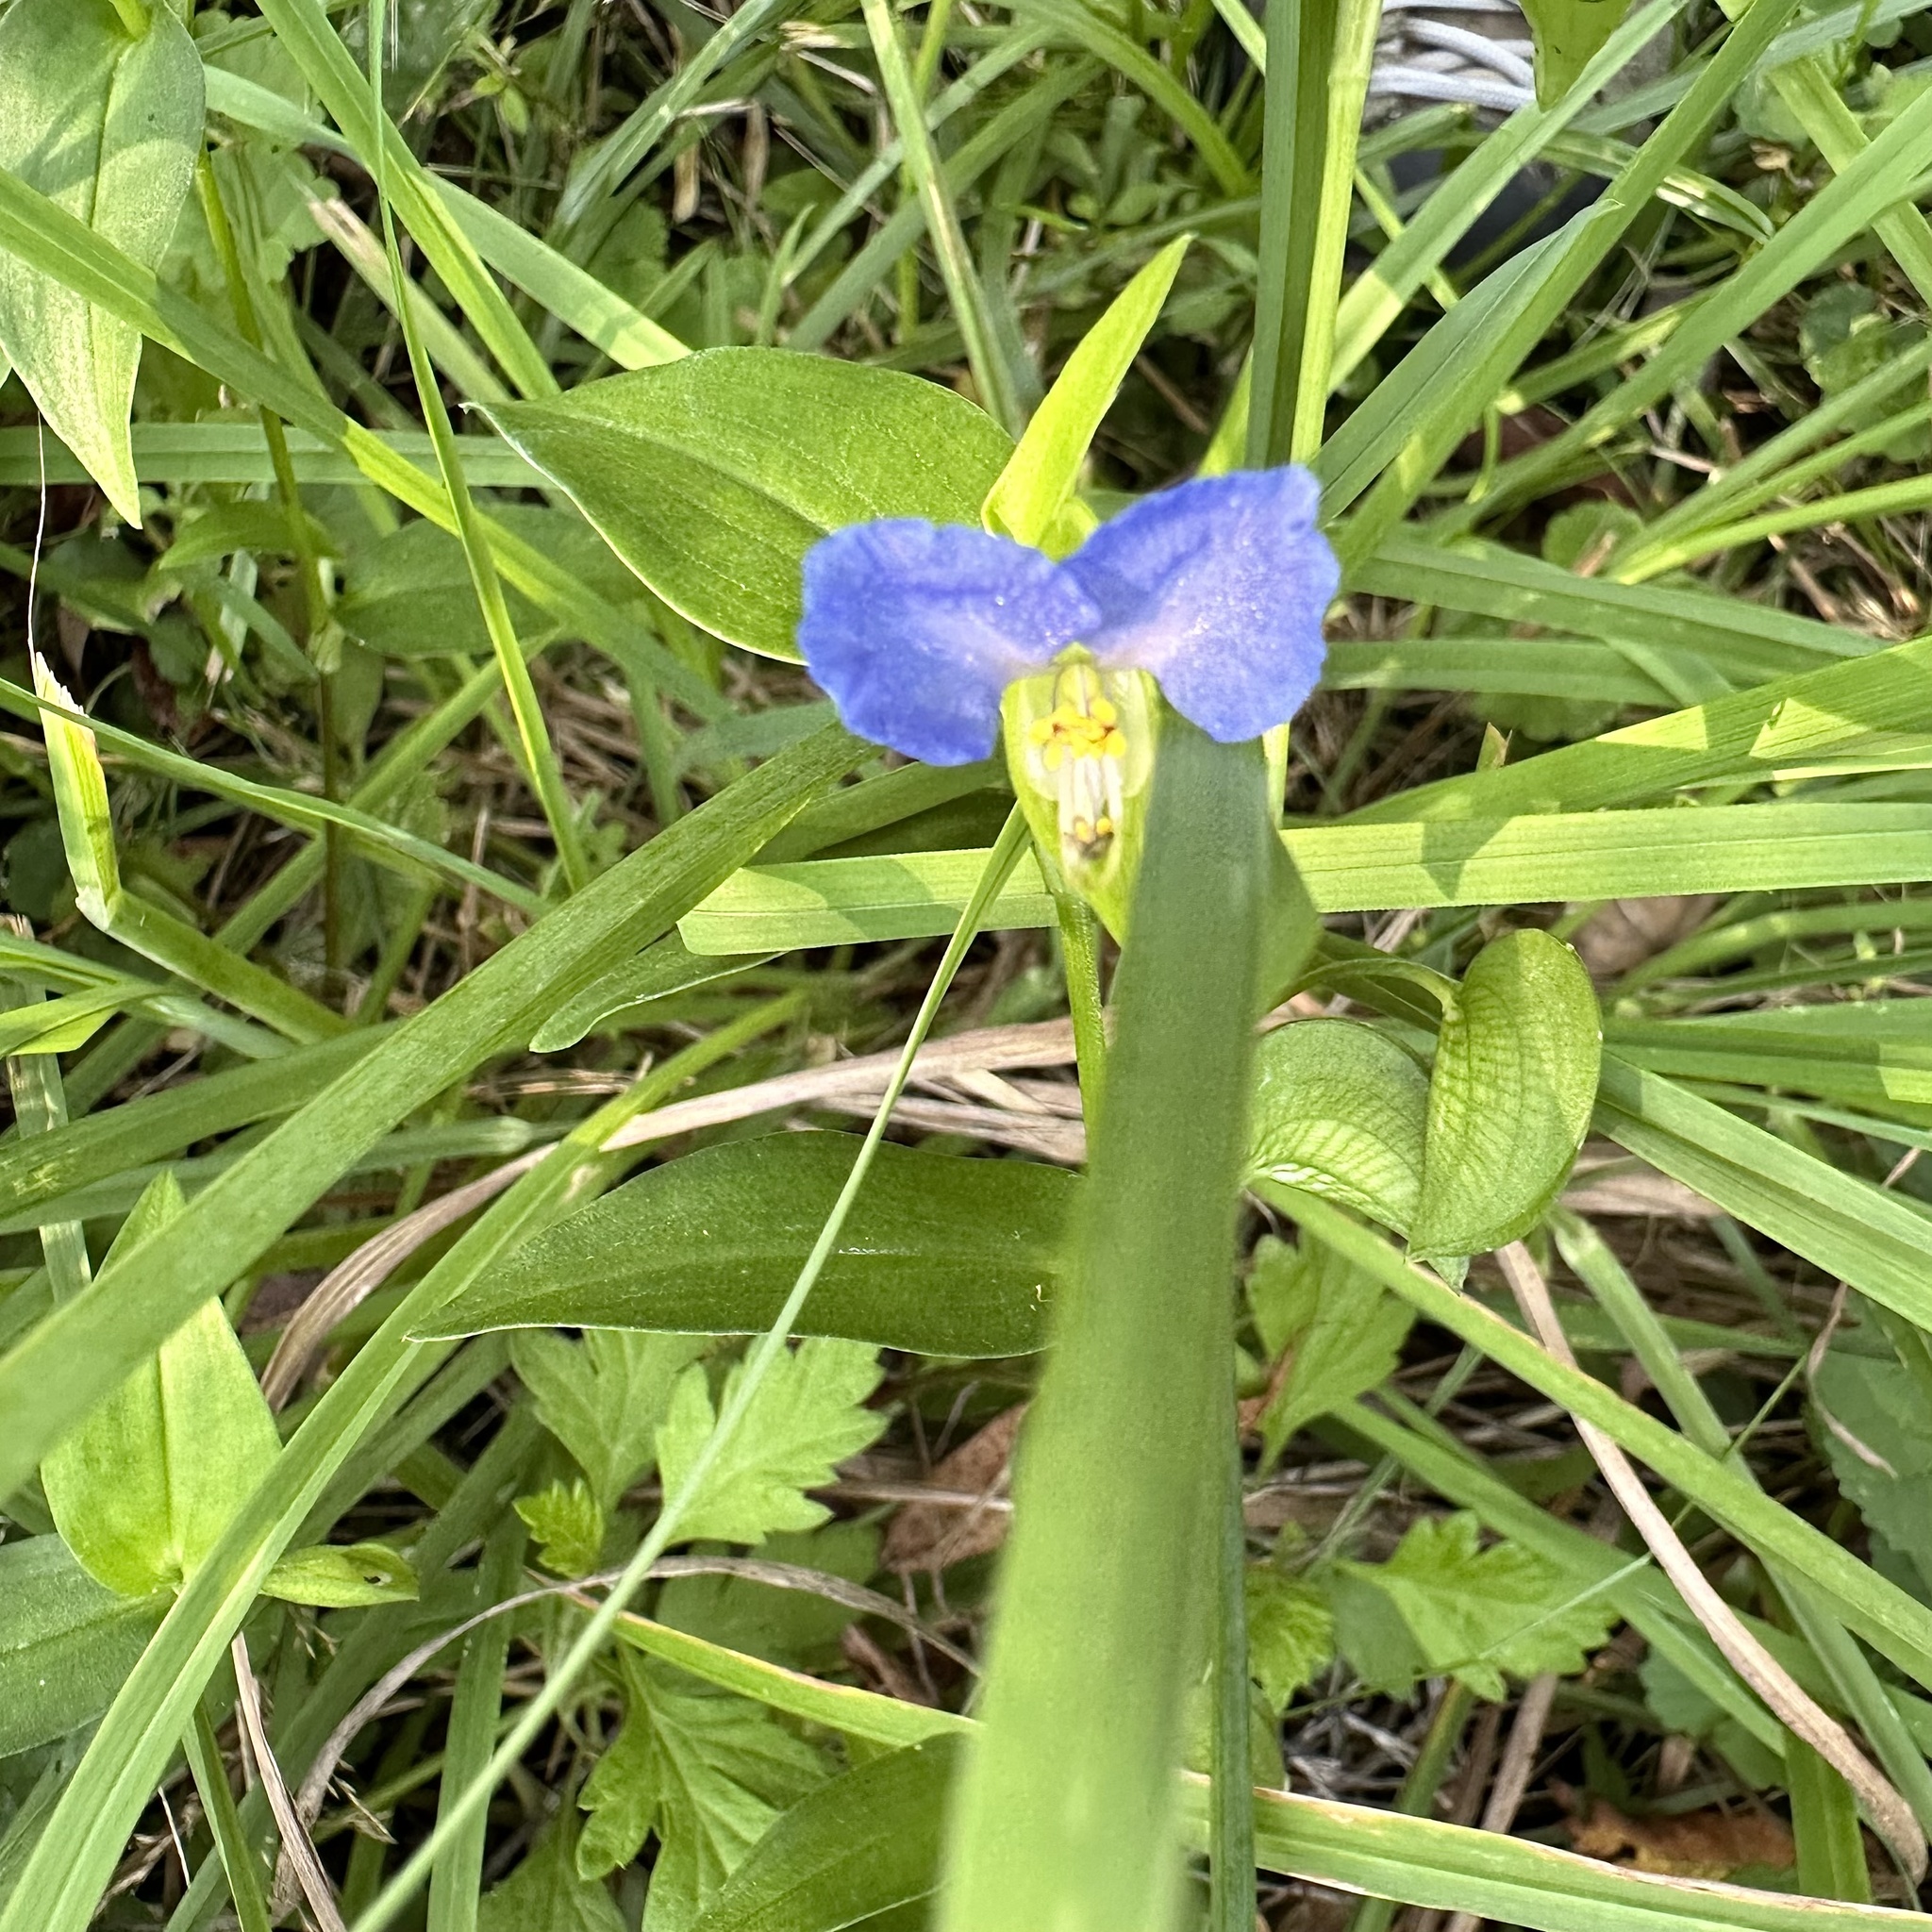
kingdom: Plantae
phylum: Tracheophyta
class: Liliopsida
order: Commelinales
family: Commelinaceae
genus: Commelina
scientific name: Commelina communis
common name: Asiatic dayflower
